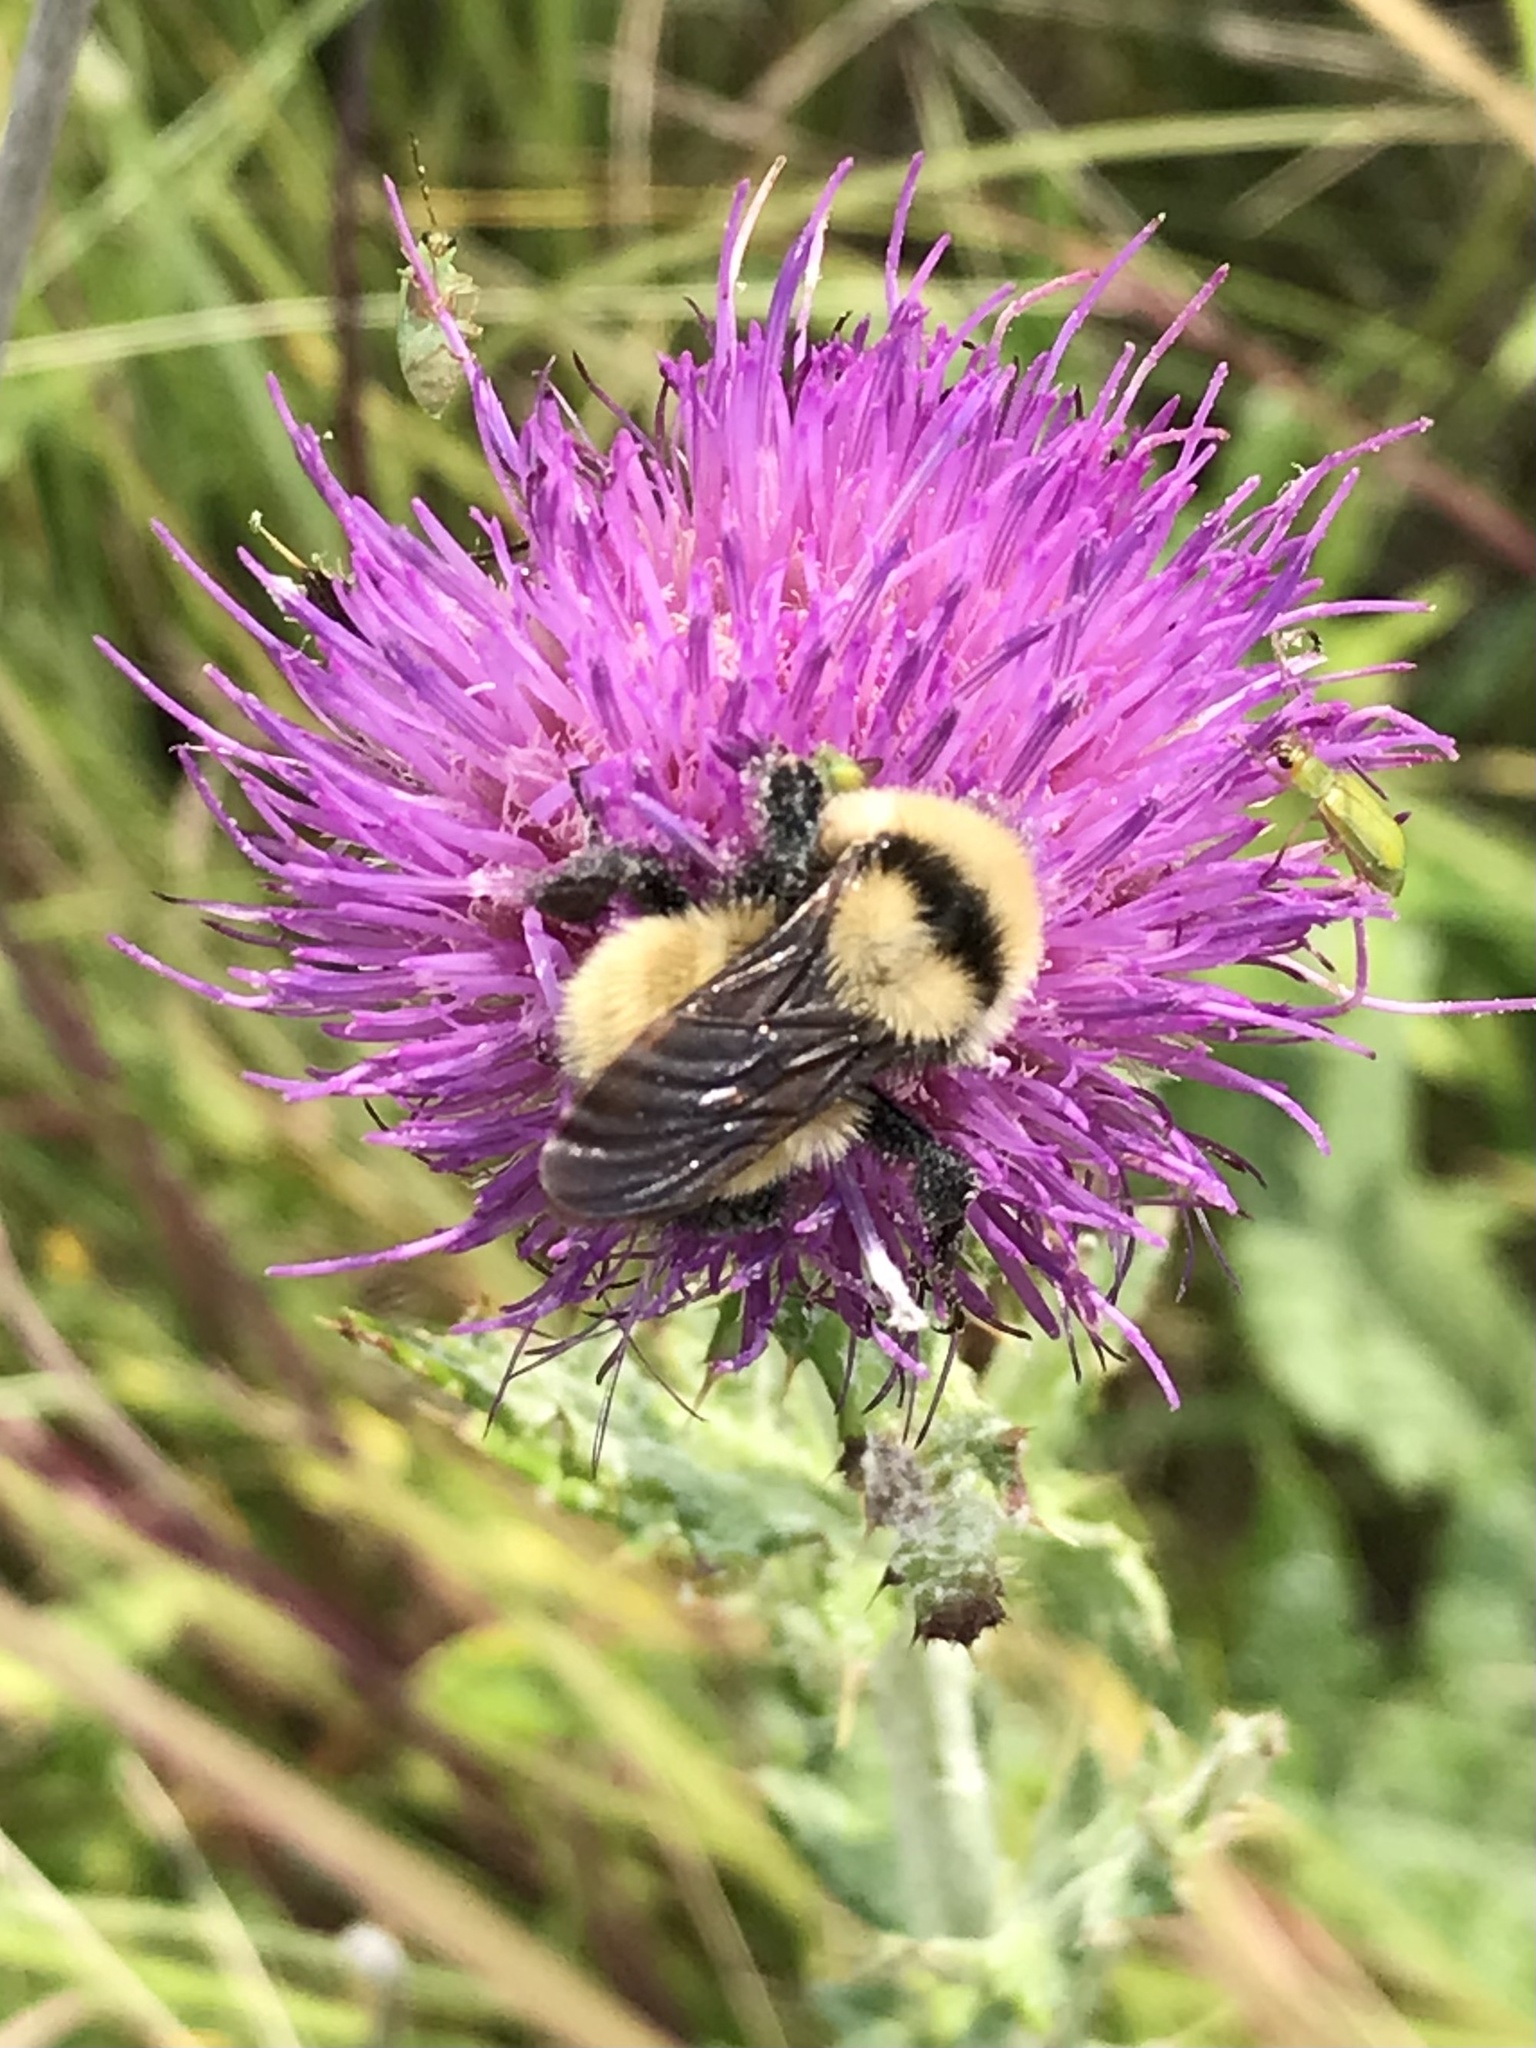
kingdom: Animalia
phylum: Arthropoda
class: Insecta
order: Hymenoptera
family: Apidae
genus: Bombus
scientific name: Bombus fervidus
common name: Yellow bumble bee
